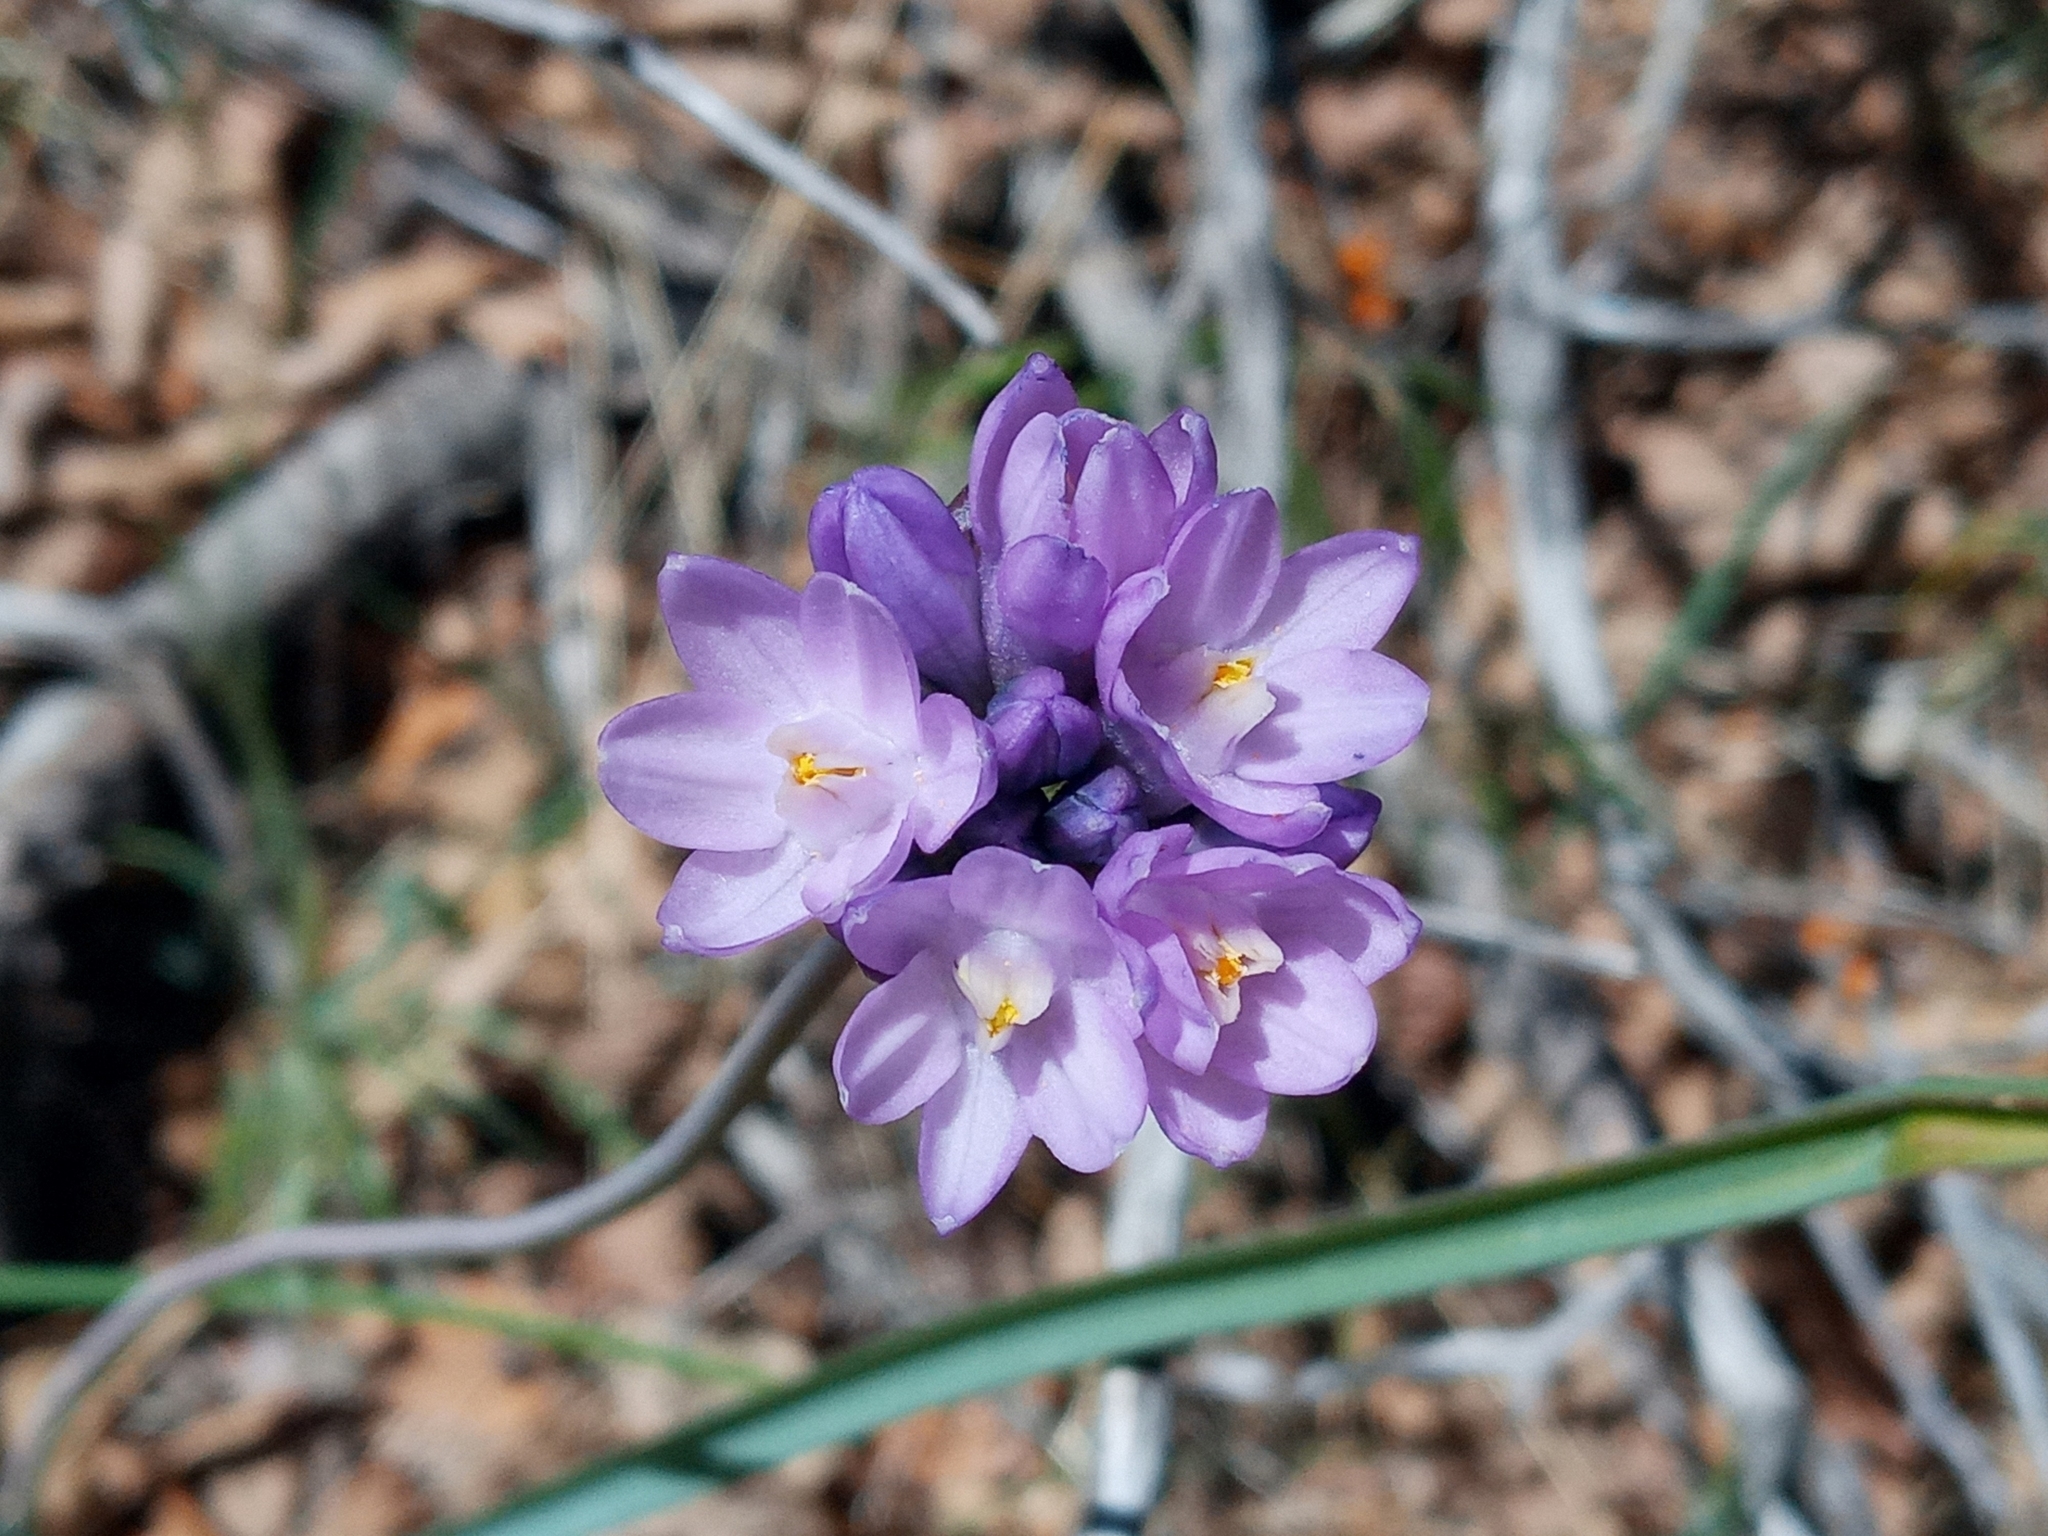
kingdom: Plantae
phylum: Tracheophyta
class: Liliopsida
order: Asparagales
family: Asparagaceae
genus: Dipterostemon
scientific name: Dipterostemon capitatus
